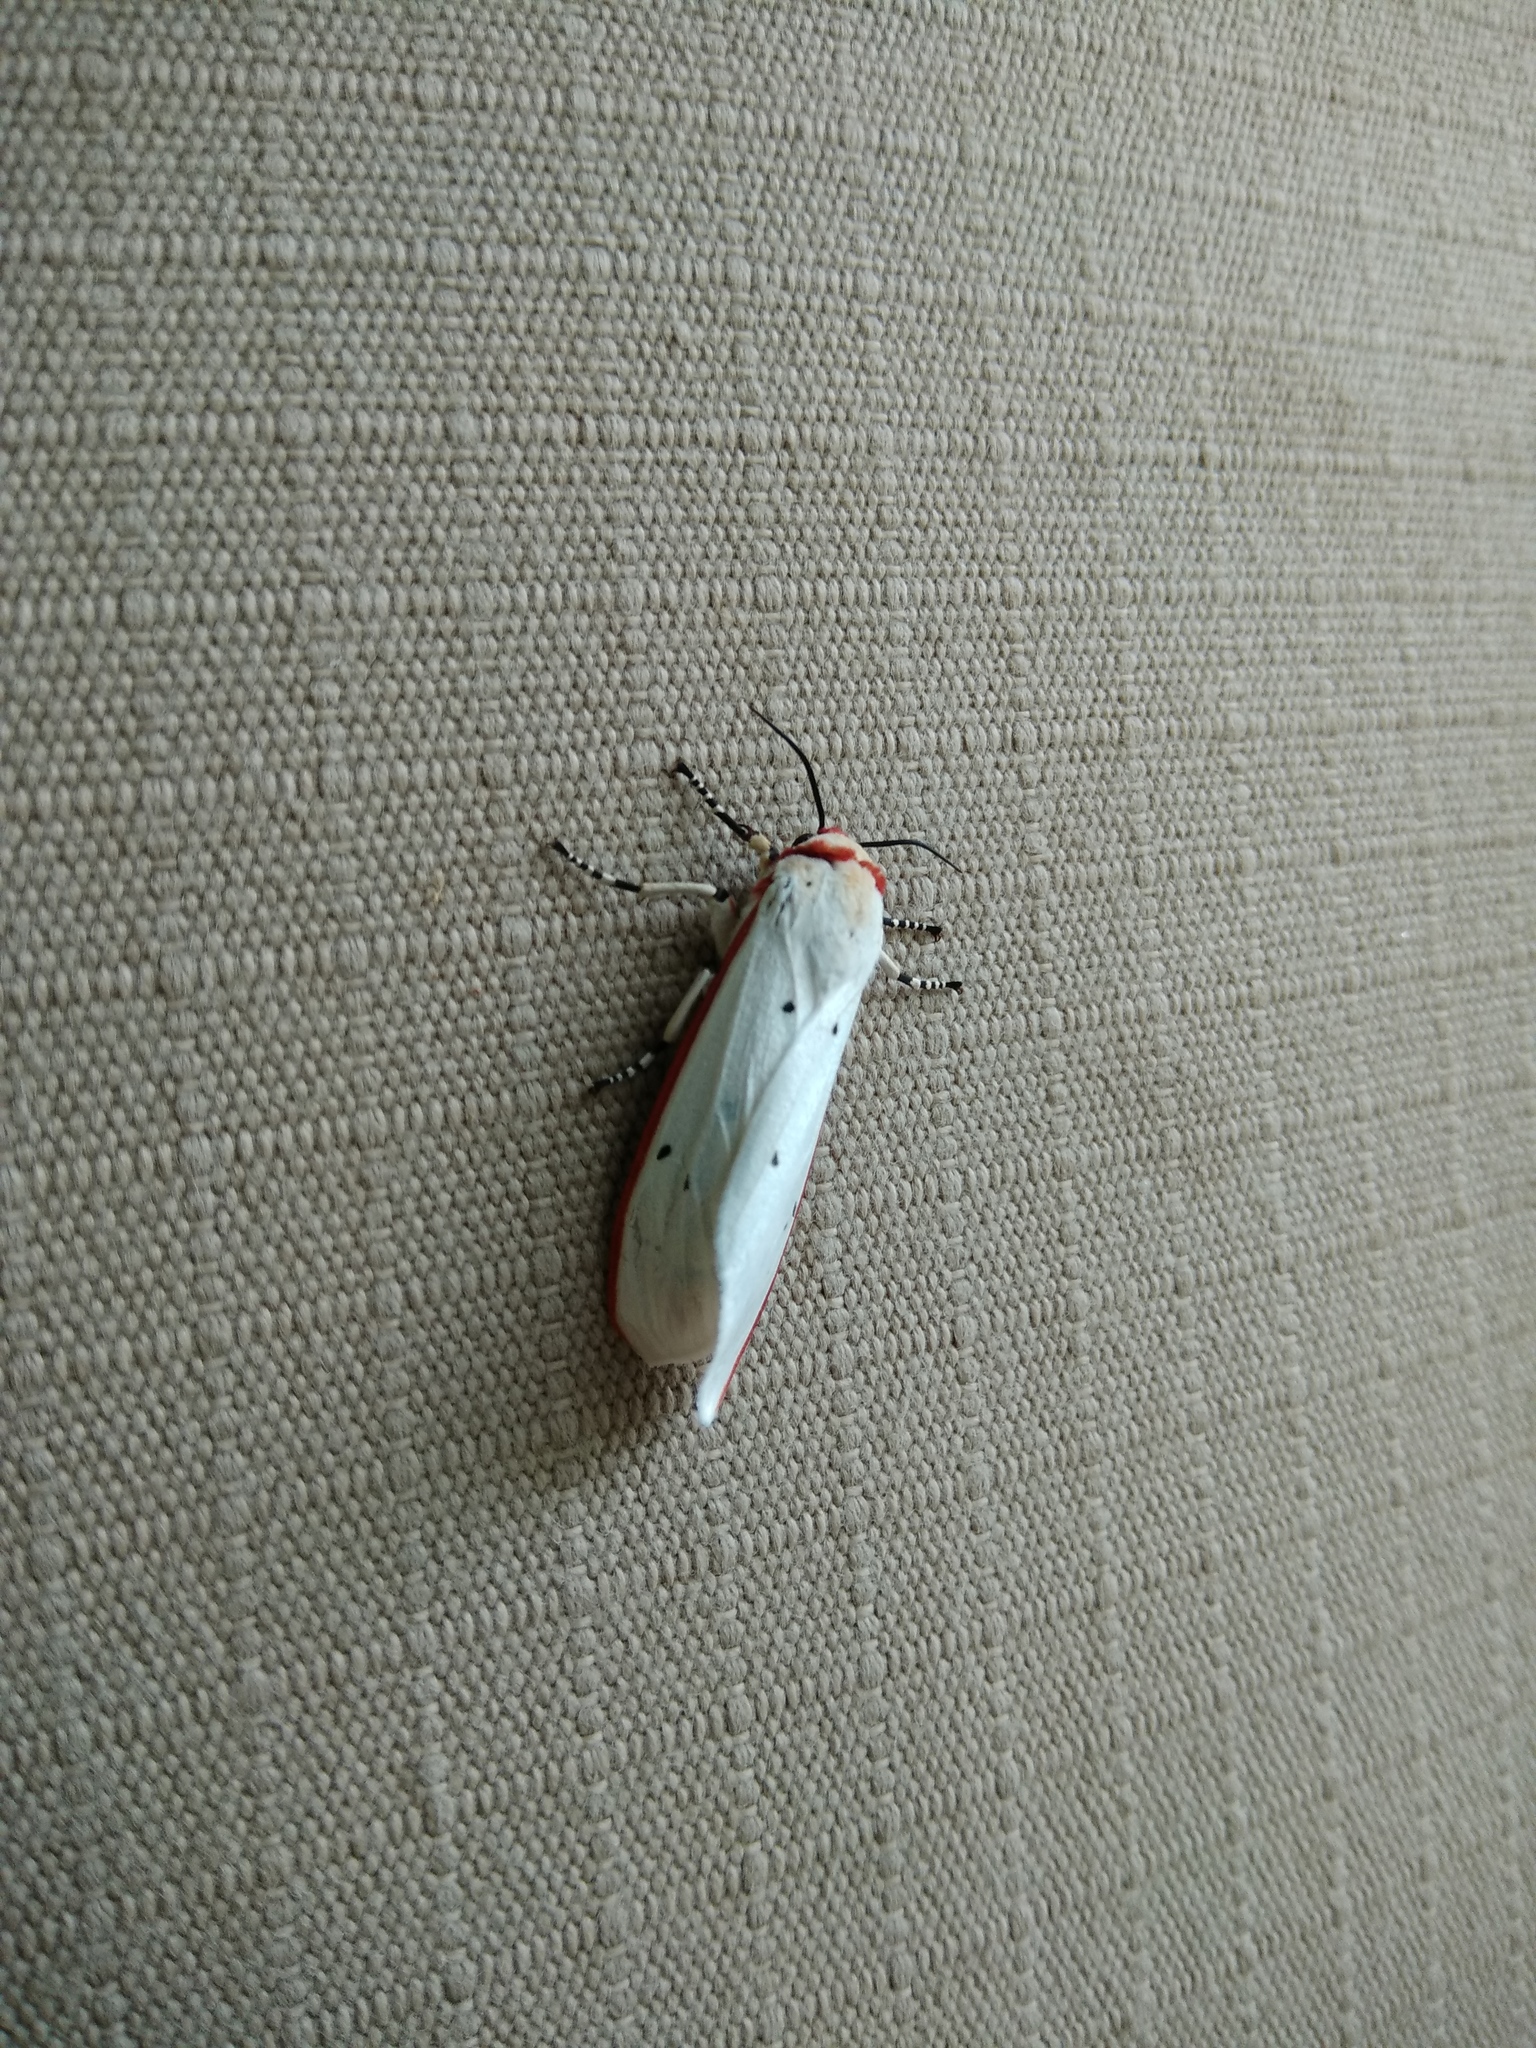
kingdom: Animalia
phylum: Arthropoda
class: Insecta
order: Lepidoptera
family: Erebidae
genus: Aloa
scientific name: Aloa lactinea
